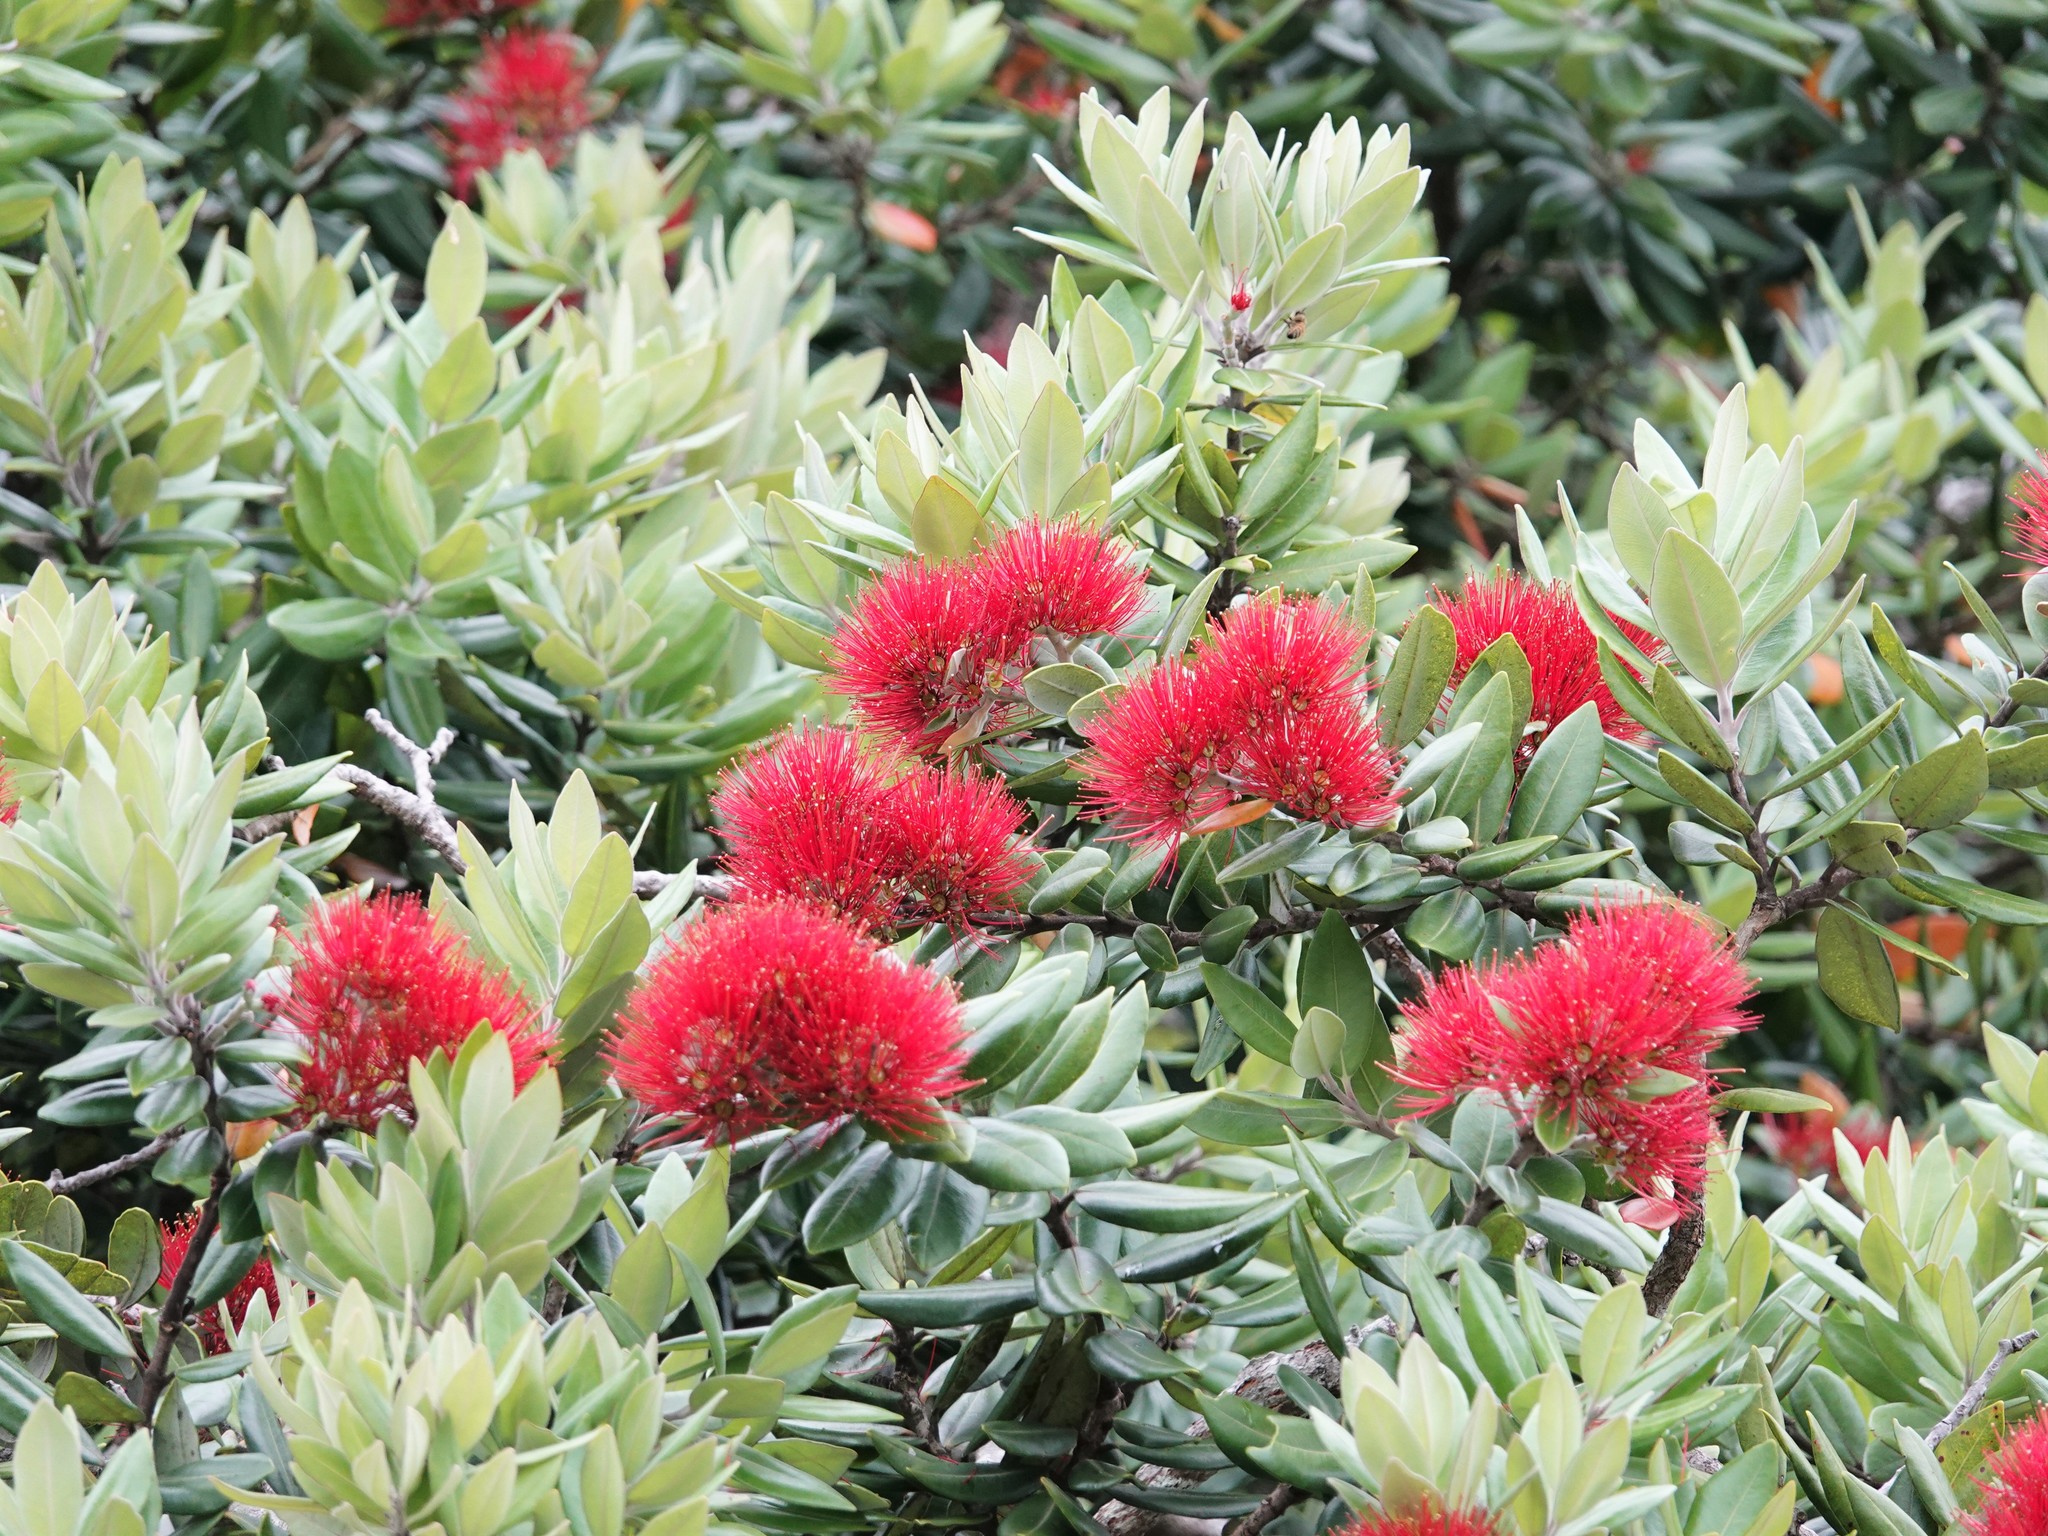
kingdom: Plantae
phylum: Tracheophyta
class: Magnoliopsida
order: Myrtales
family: Myrtaceae
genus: Metrosideros
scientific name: Metrosideros excelsa
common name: New zealand christmastree
